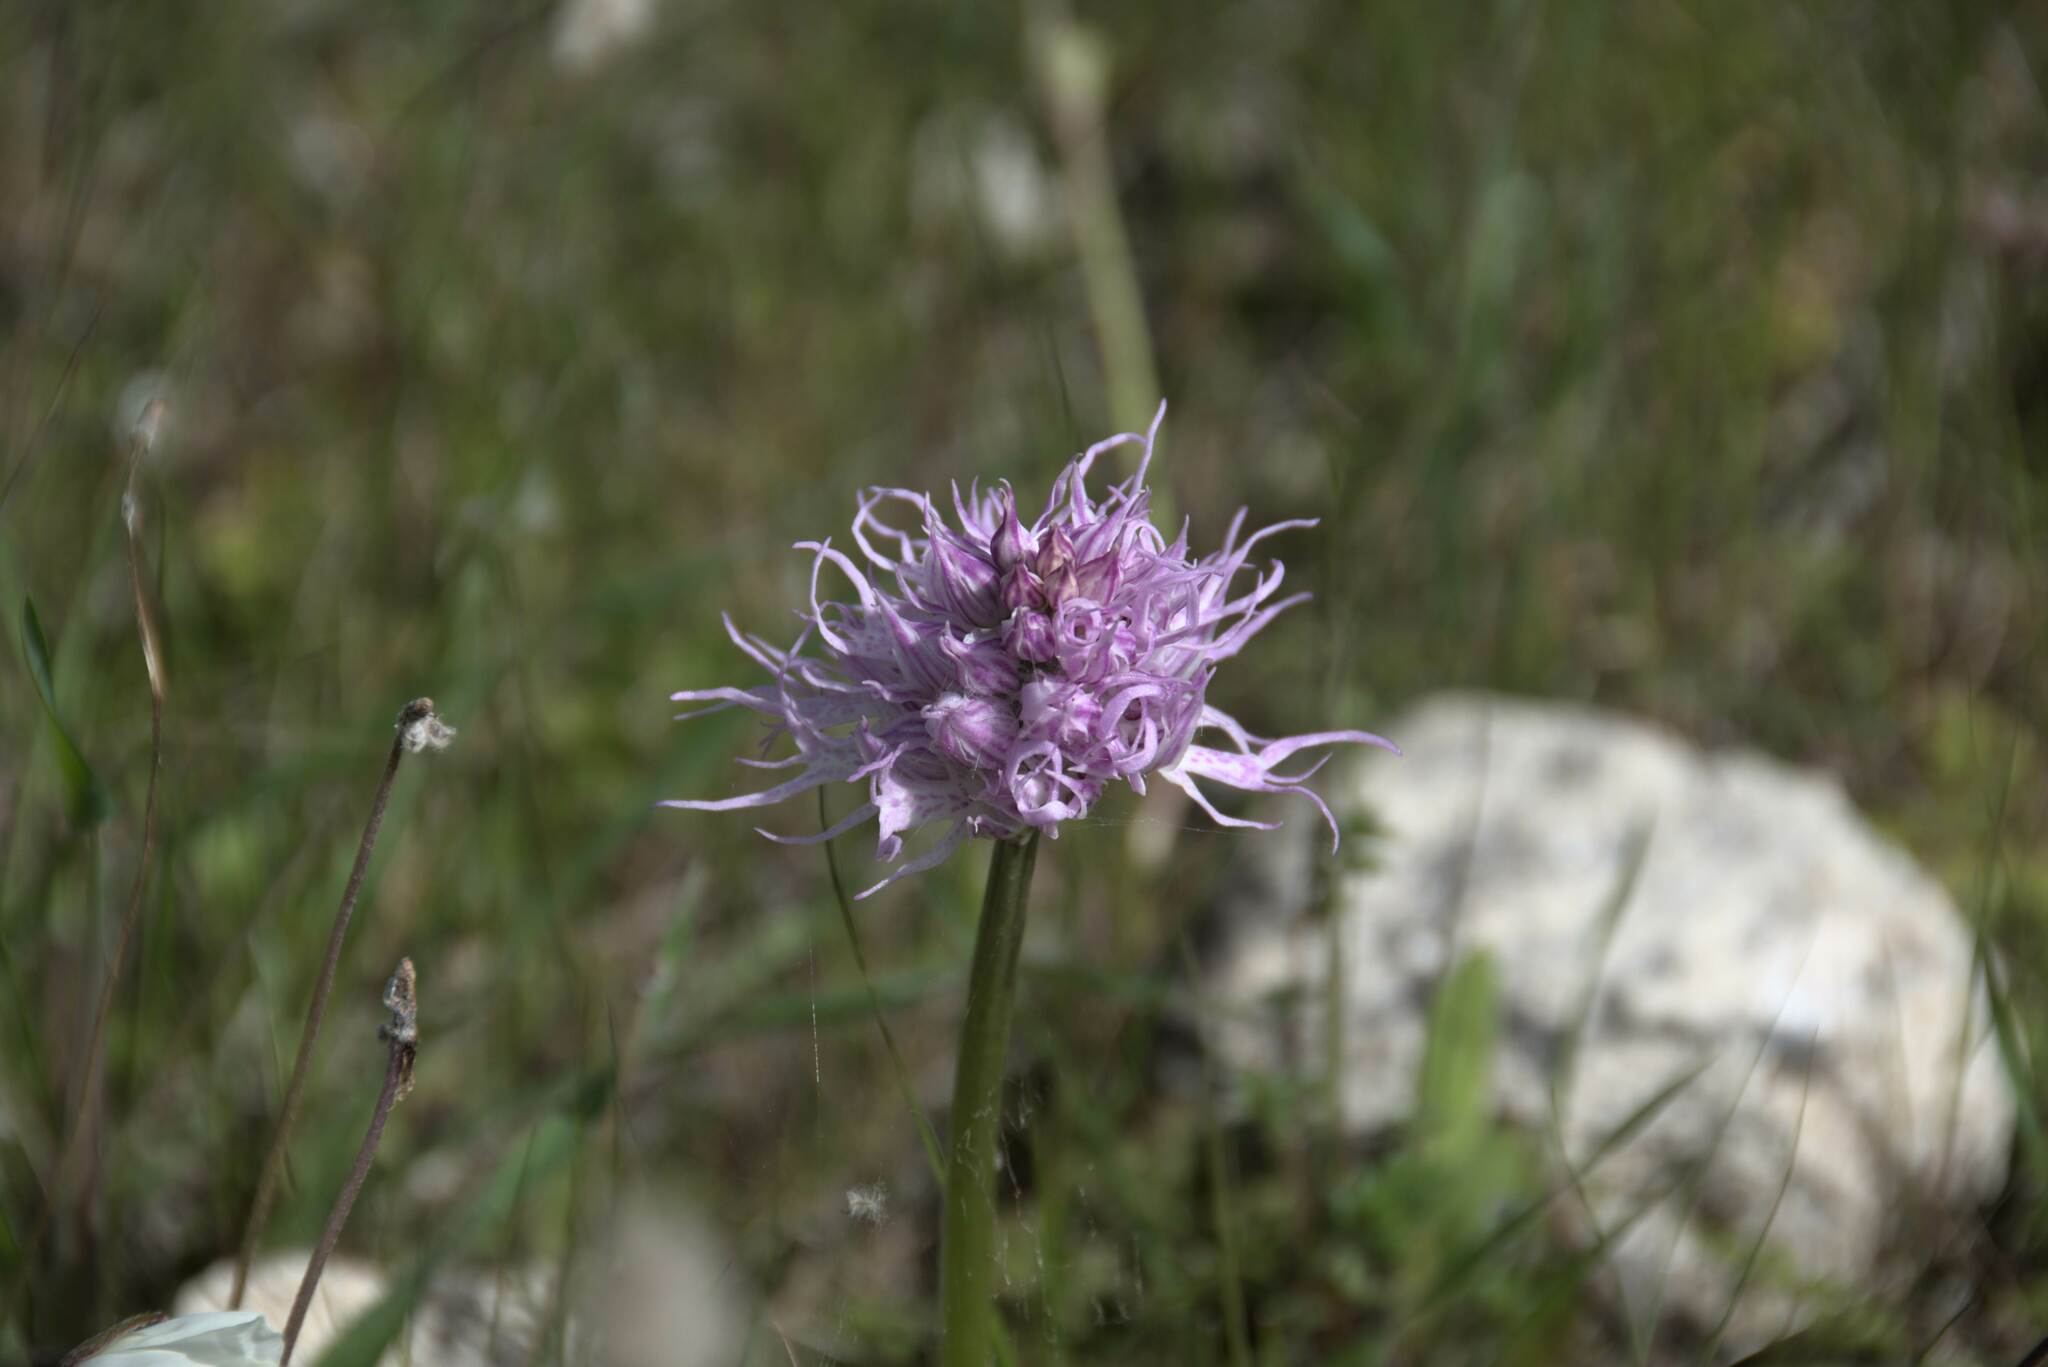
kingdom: Plantae
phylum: Tracheophyta
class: Liliopsida
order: Asparagales
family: Orchidaceae
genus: Orchis
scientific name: Orchis italica
